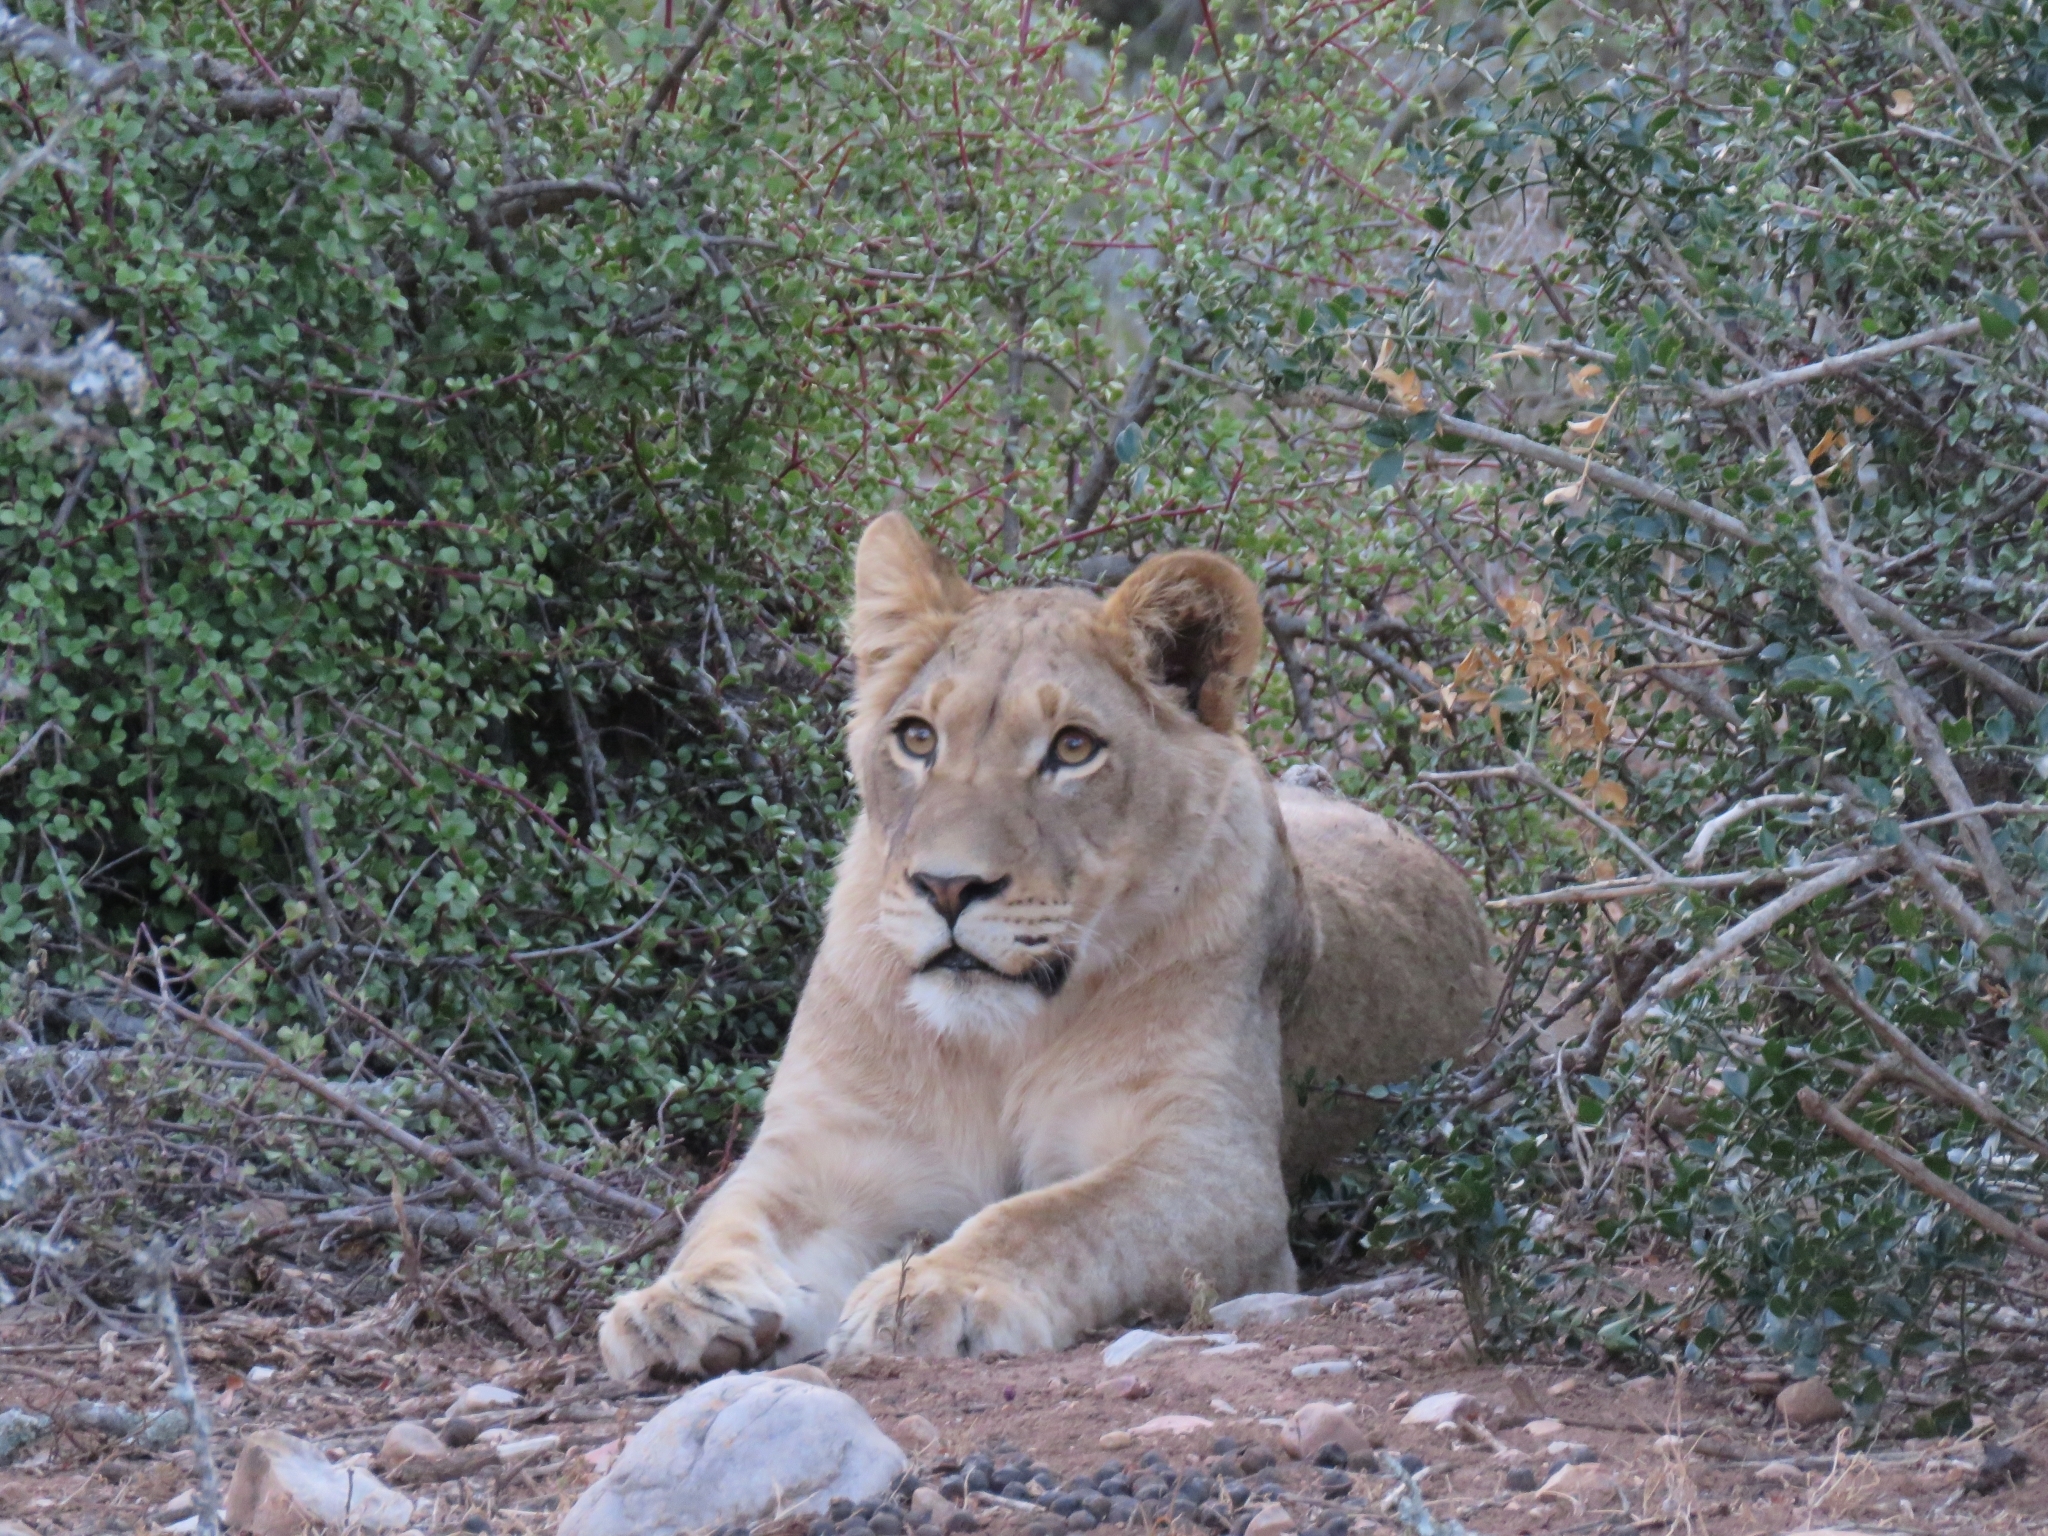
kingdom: Animalia
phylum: Chordata
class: Mammalia
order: Carnivora
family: Felidae
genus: Panthera
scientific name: Panthera leo
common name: Lion
